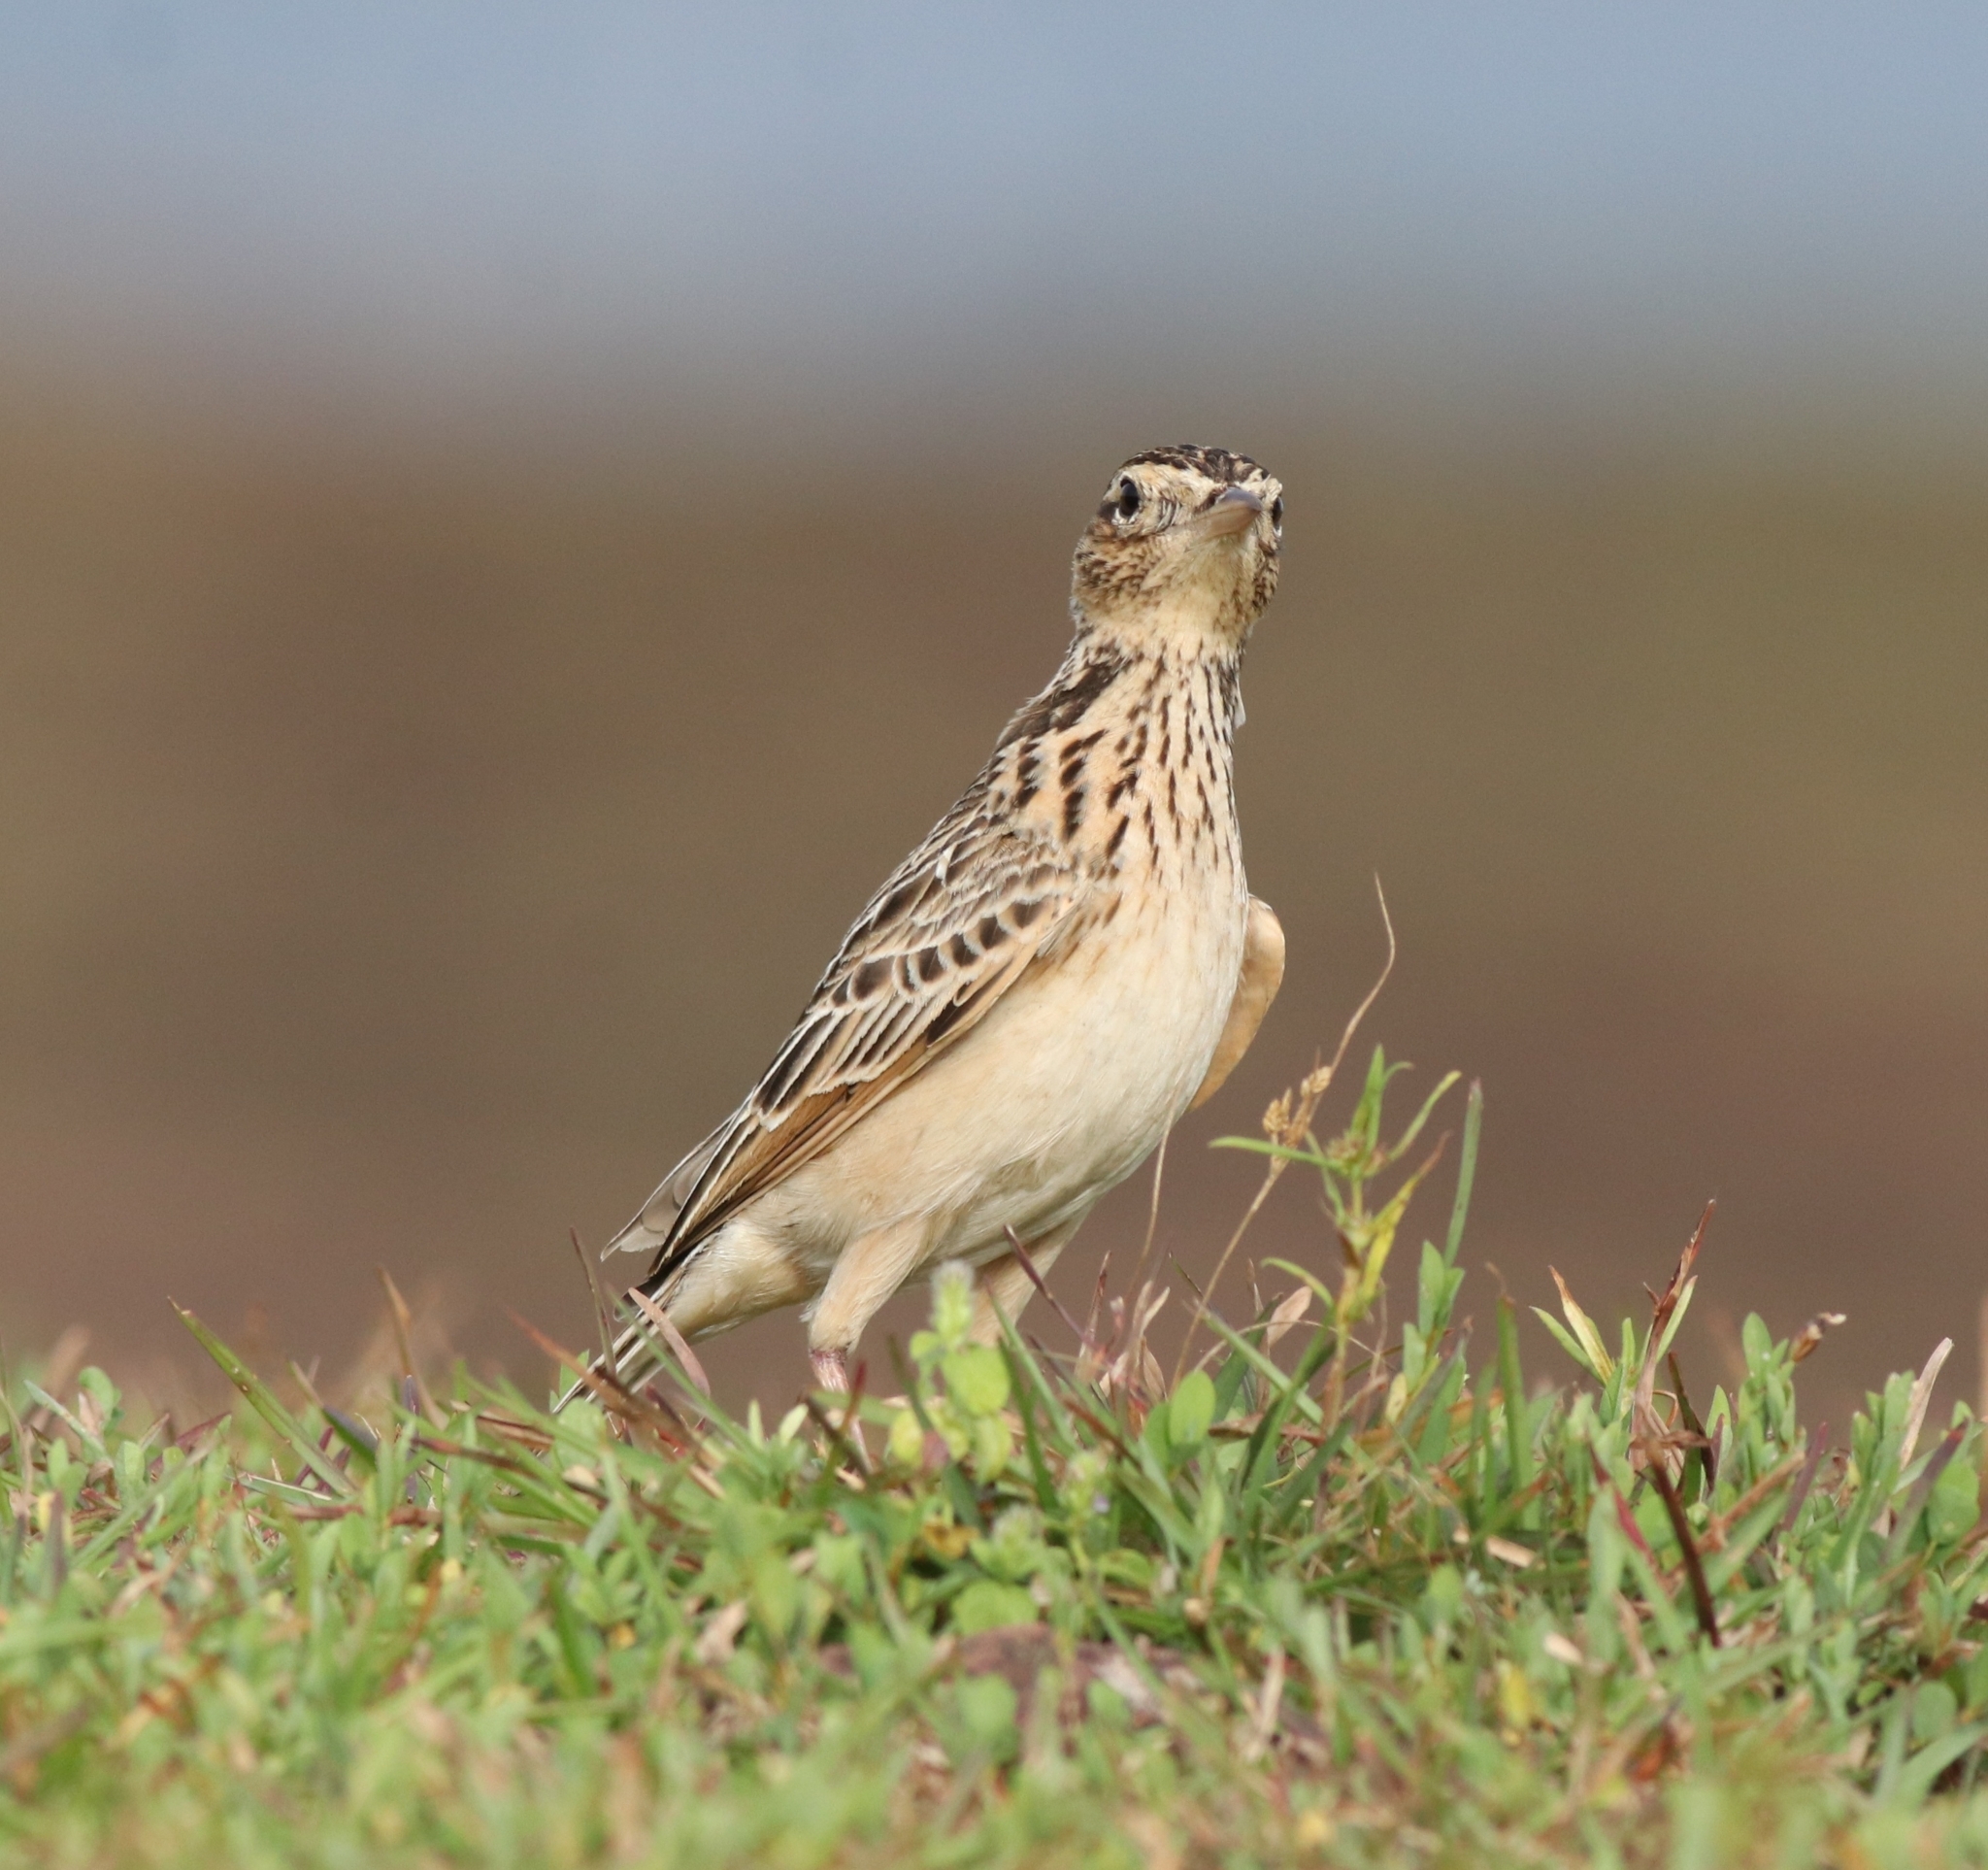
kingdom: Animalia
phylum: Chordata
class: Aves
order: Passeriformes
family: Alaudidae
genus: Alauda
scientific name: Alauda gulgula
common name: Oriental skylark
